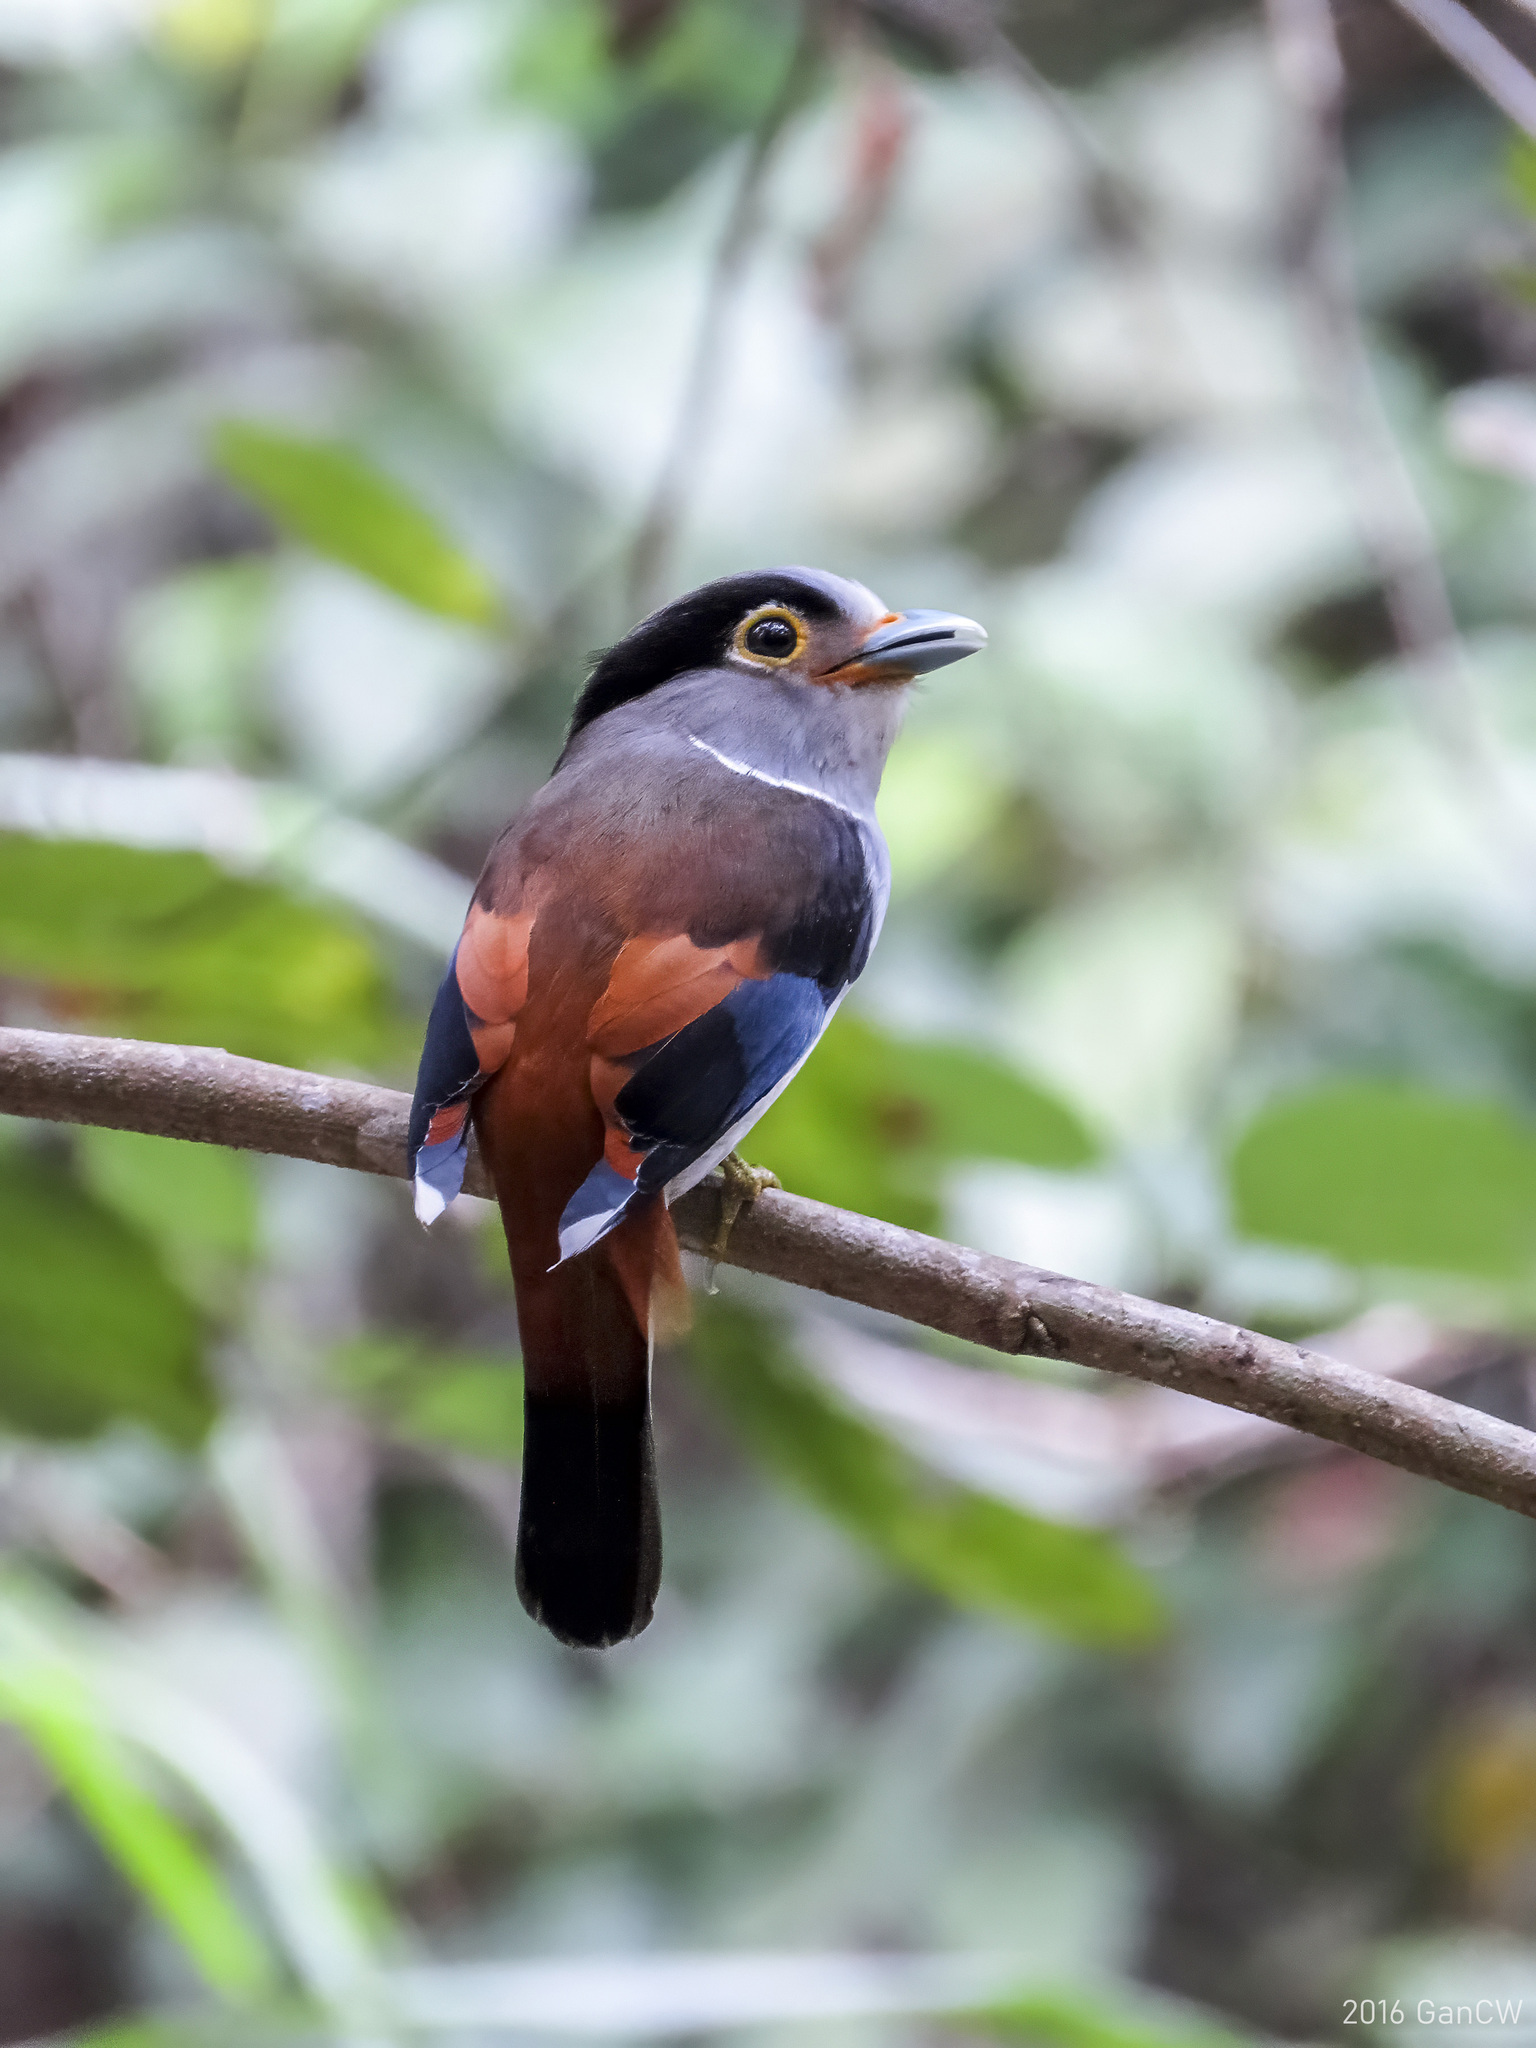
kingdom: Animalia
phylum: Chordata
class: Aves
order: Passeriformes
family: Eurylaimidae
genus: Serilophus
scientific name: Serilophus lunatus
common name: Silver-breasted broadbill
